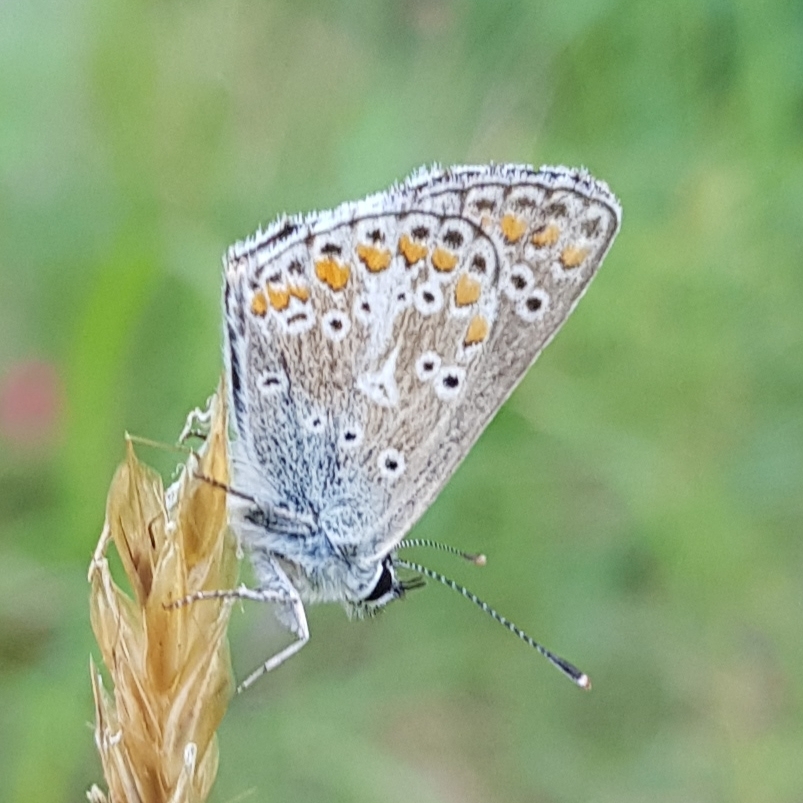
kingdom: Animalia
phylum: Arthropoda
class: Insecta
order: Lepidoptera
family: Lycaenidae
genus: Aricia
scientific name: Aricia artaxerxes
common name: Northern brown argus
